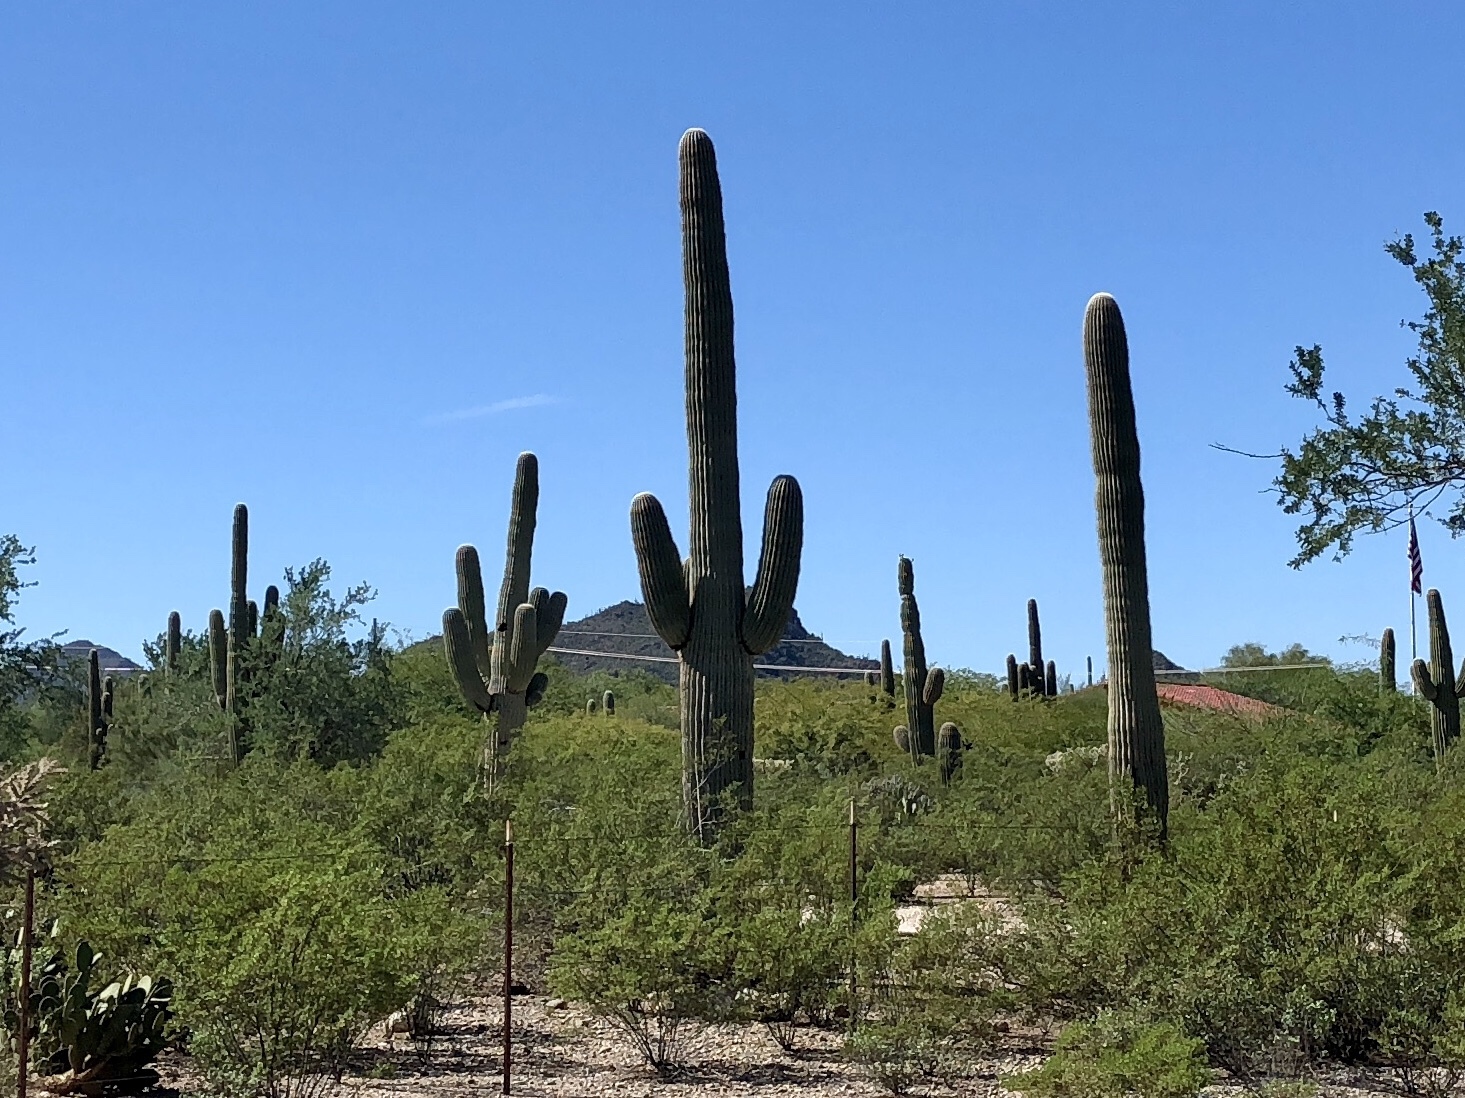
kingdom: Plantae
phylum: Tracheophyta
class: Magnoliopsida
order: Zygophyllales
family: Zygophyllaceae
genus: Larrea
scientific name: Larrea tridentata
